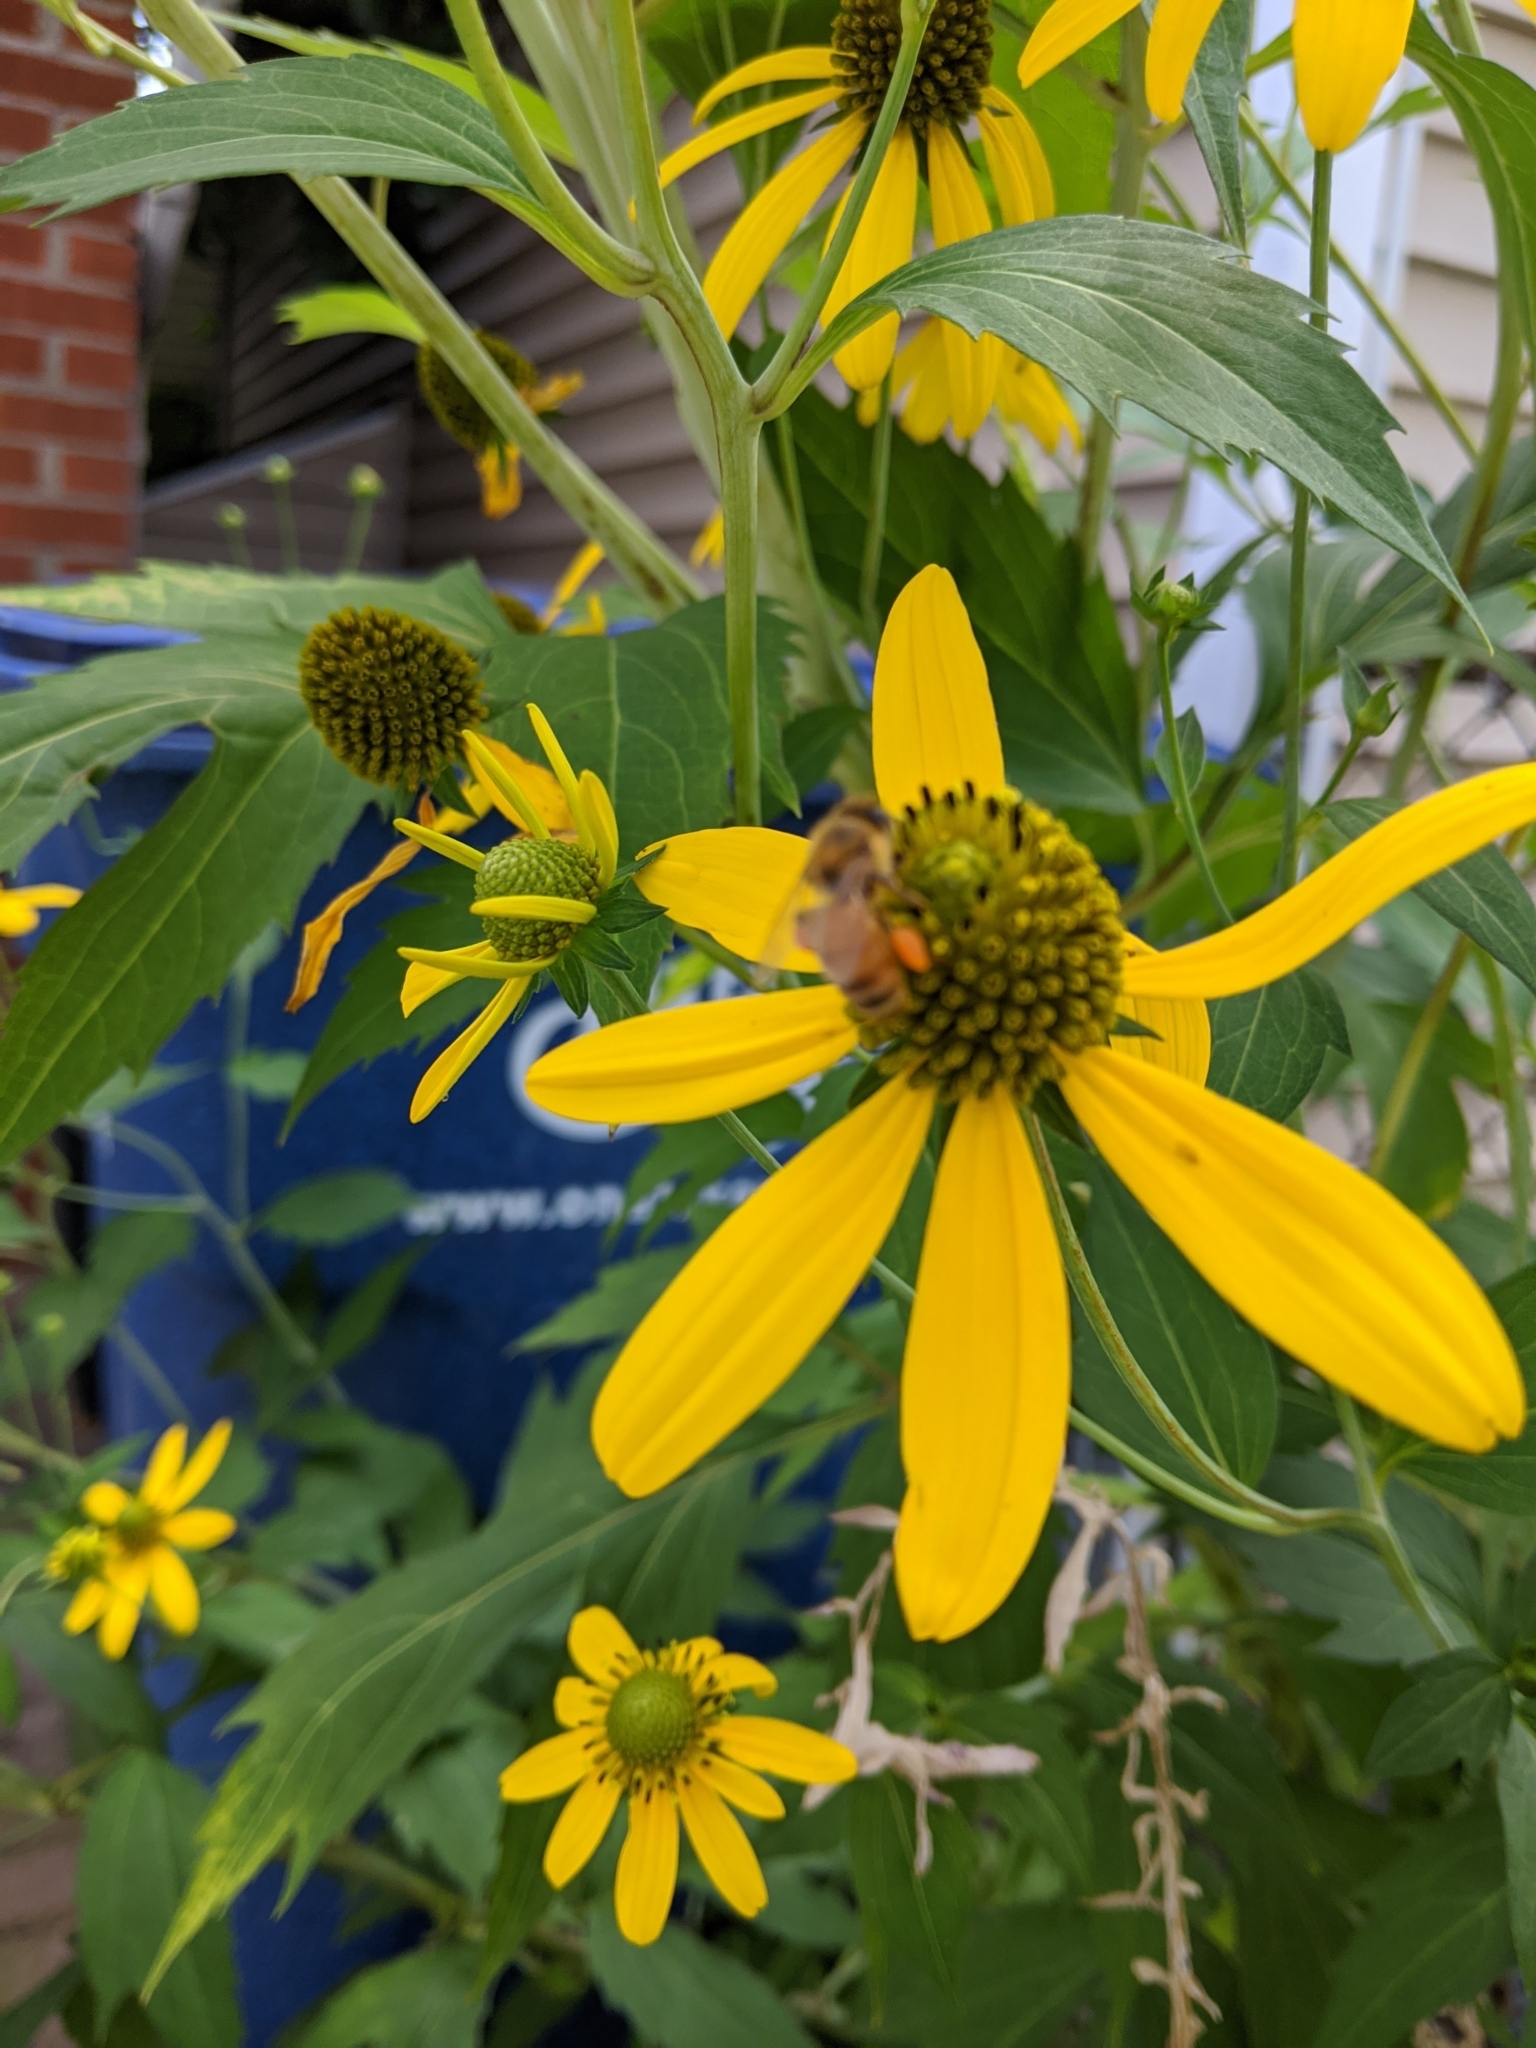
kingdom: Animalia
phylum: Arthropoda
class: Insecta
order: Hymenoptera
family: Apidae
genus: Apis
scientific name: Apis mellifera
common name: Honey bee
